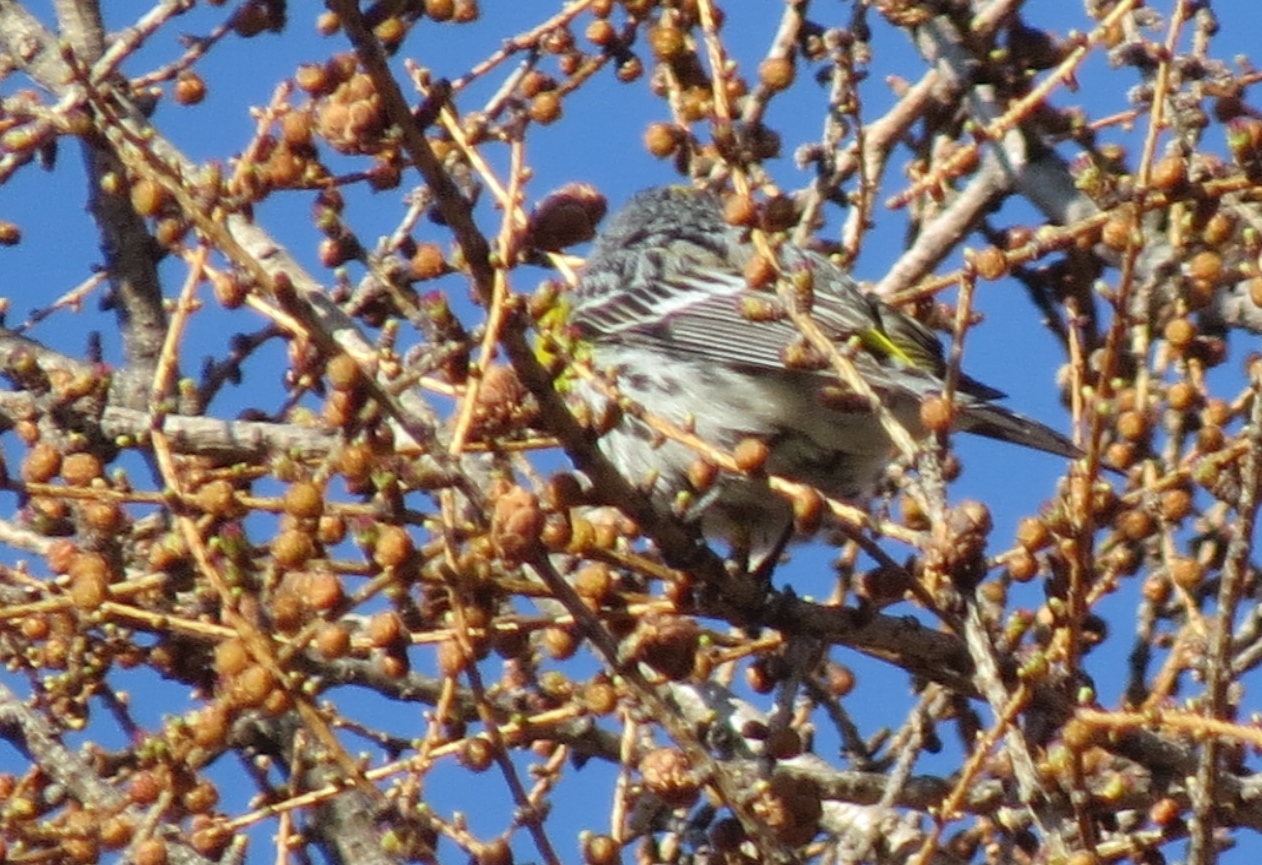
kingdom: Animalia
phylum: Chordata
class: Aves
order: Passeriformes
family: Parulidae
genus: Setophaga
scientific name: Setophaga coronata
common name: Myrtle warbler
